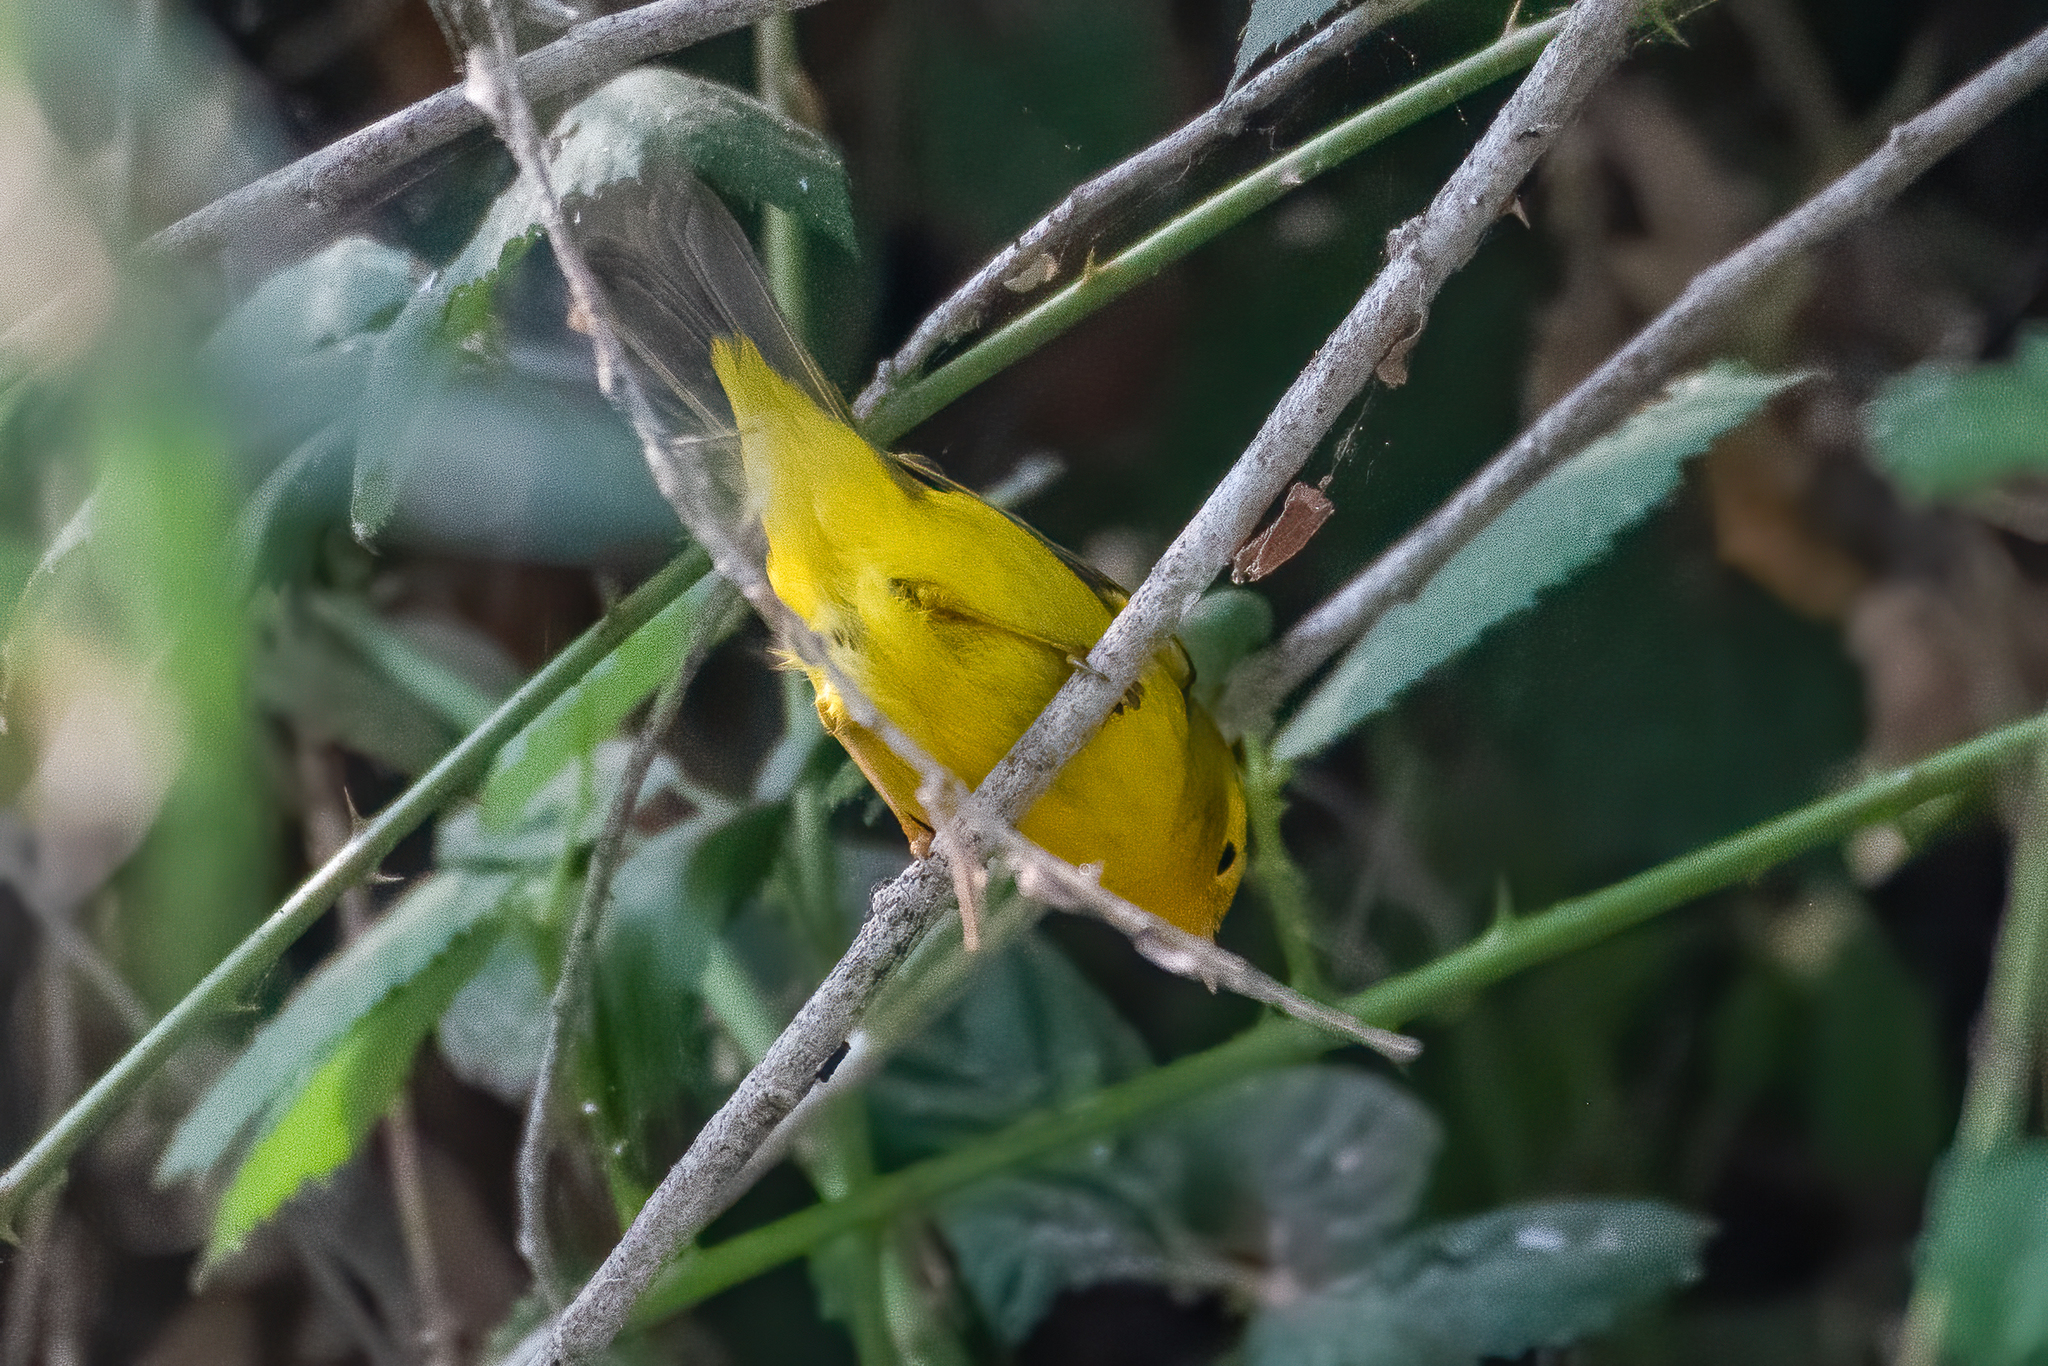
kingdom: Animalia
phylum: Chordata
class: Aves
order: Passeriformes
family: Parulidae
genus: Cardellina
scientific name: Cardellina pusilla
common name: Wilson's warbler
